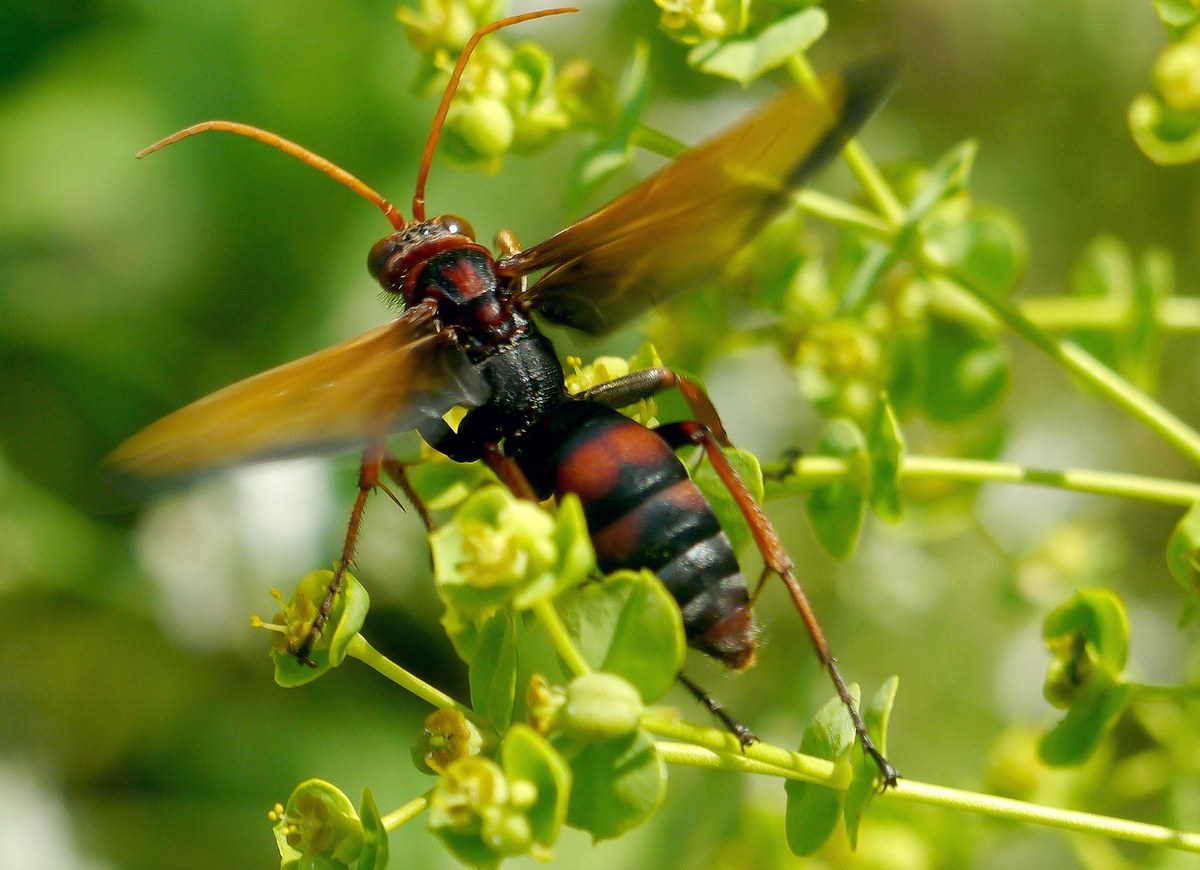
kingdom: Animalia
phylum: Arthropoda
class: Insecta
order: Hymenoptera
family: Pompilidae
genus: Cryptocheilus
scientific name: Cryptocheilus rubellus
